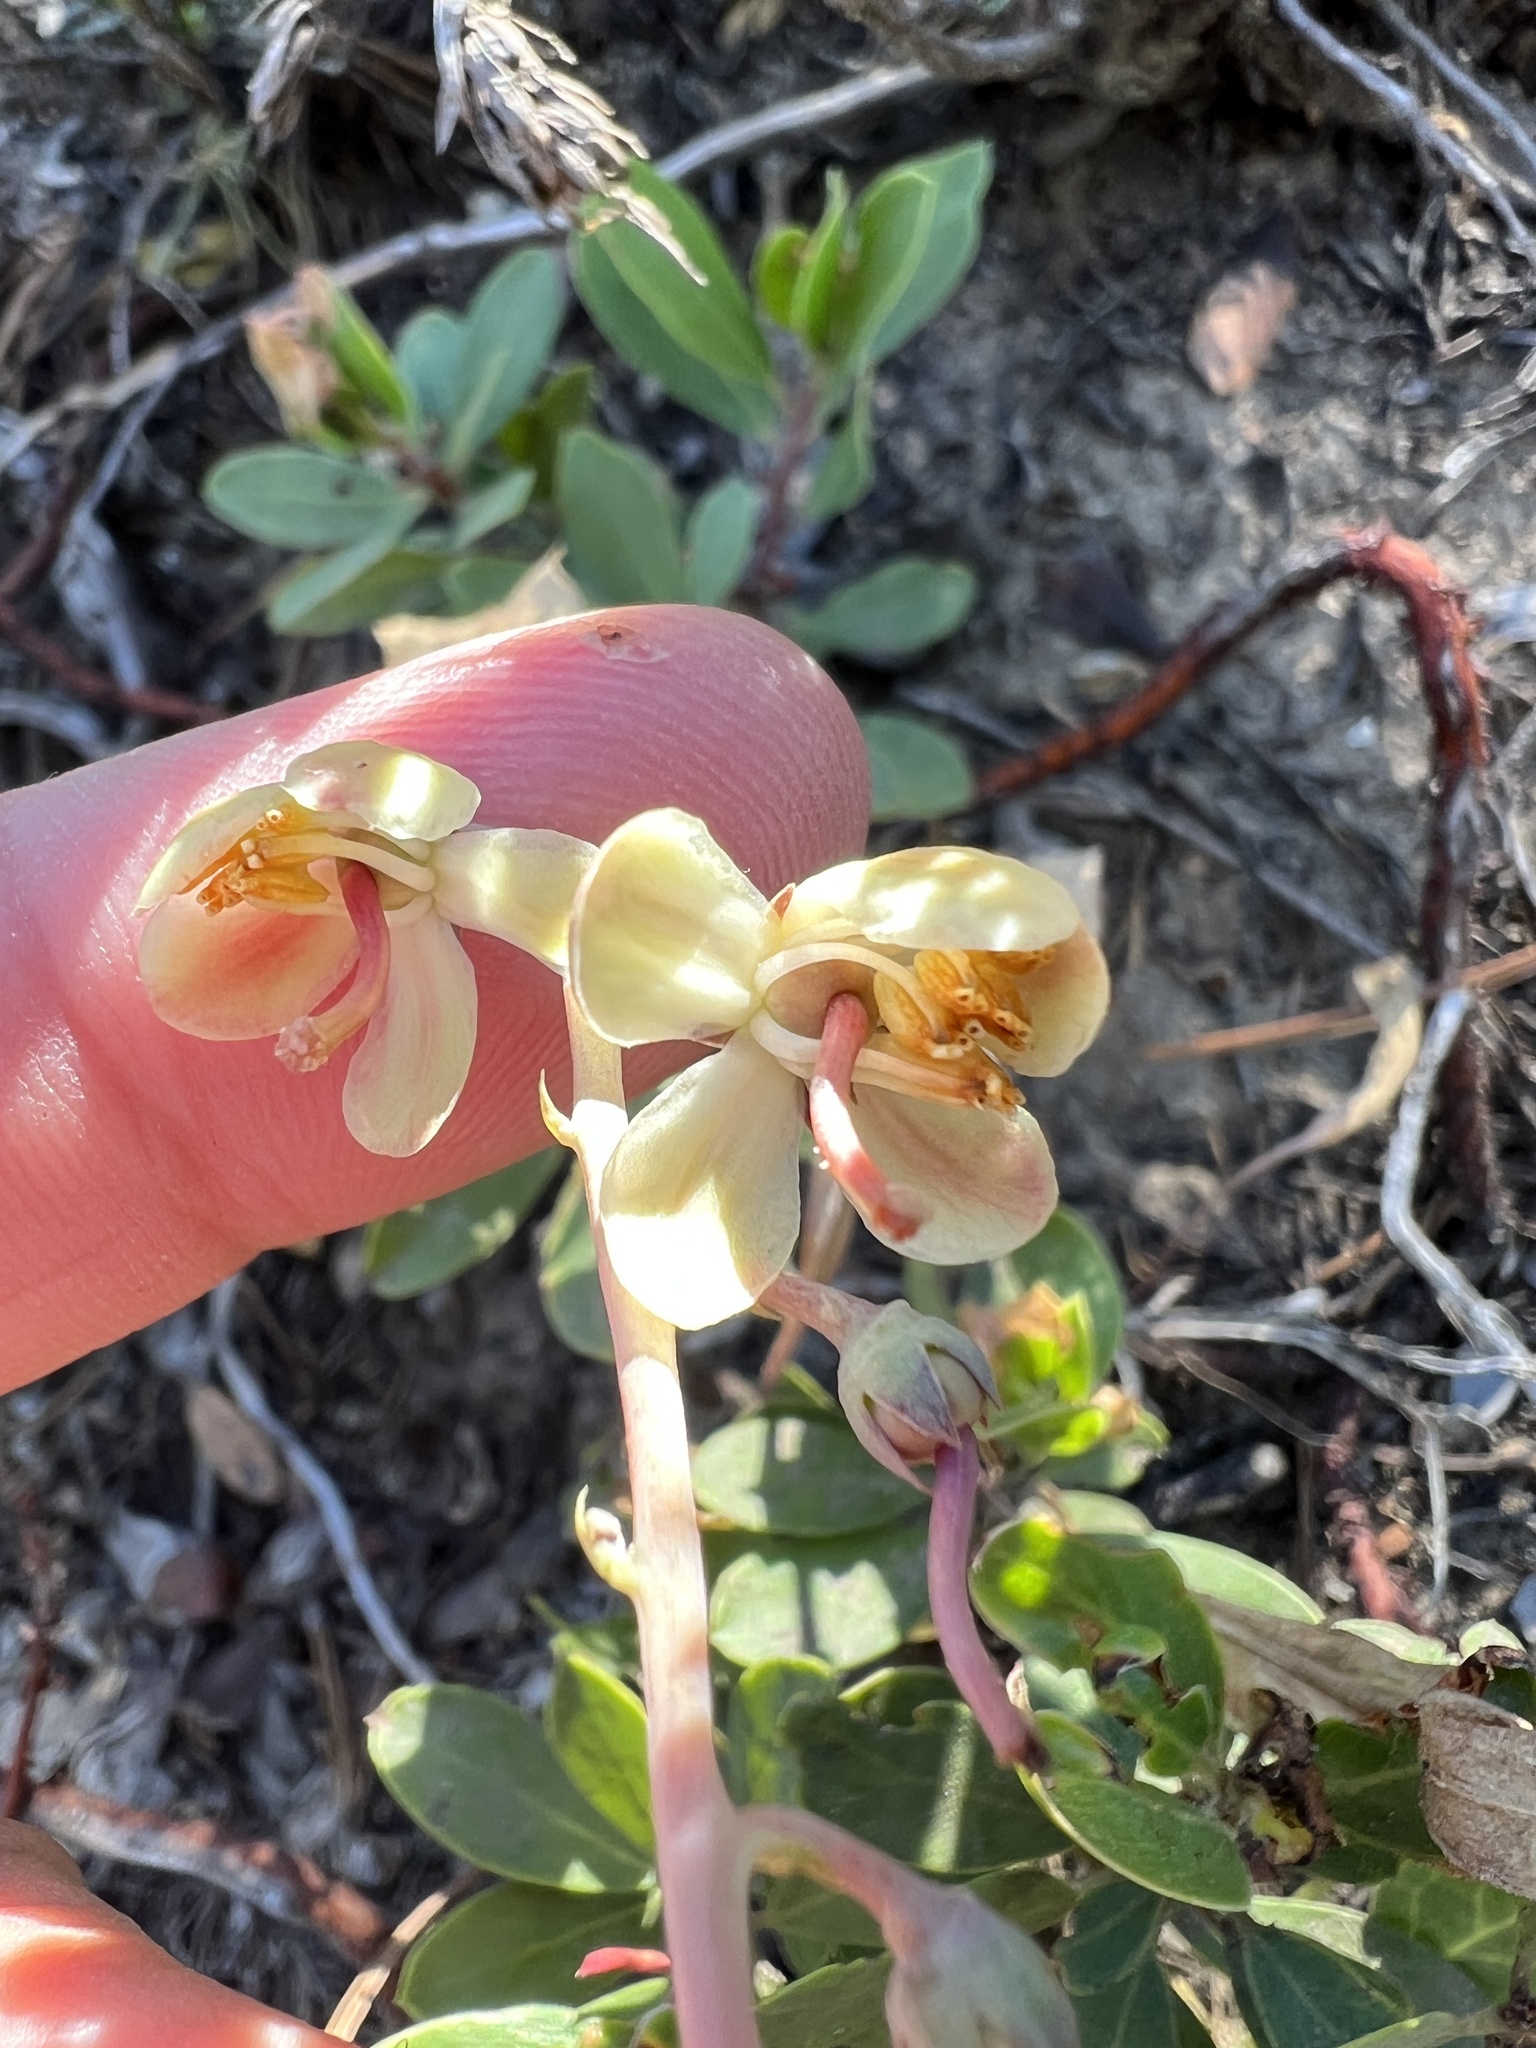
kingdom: Plantae
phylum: Tracheophyta
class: Magnoliopsida
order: Ericales
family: Ericaceae
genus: Pyrola
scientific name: Pyrola dentata
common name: Tooth-leaved wintergreen
